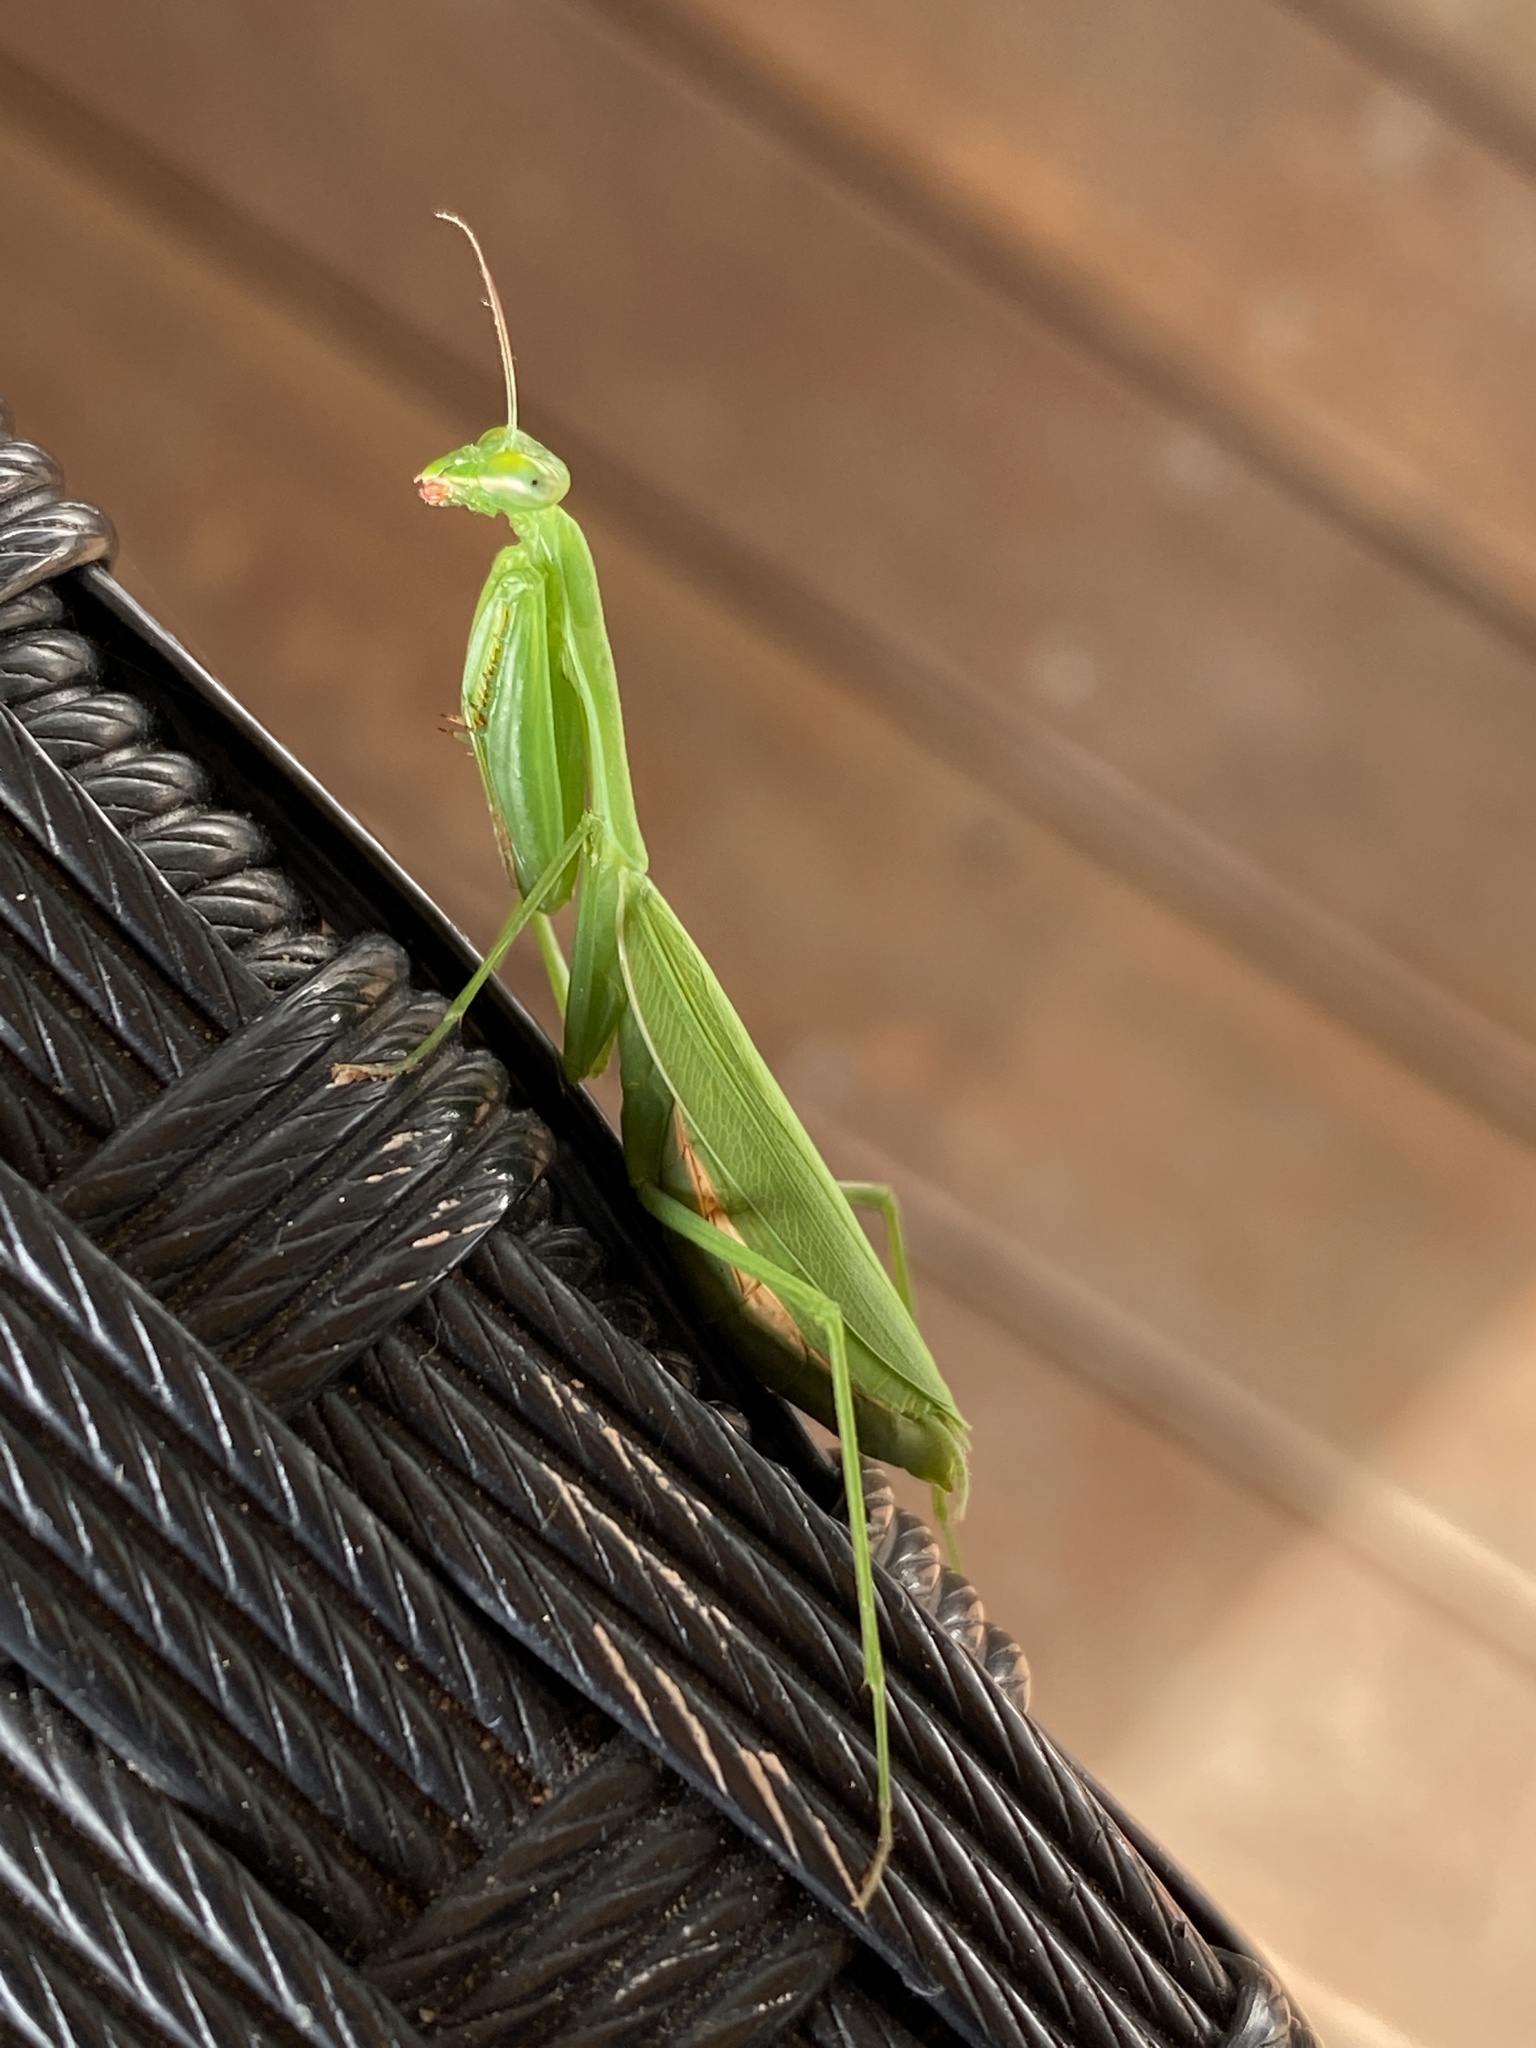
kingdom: Animalia
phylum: Arthropoda
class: Insecta
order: Mantodea
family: Miomantidae
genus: Miomantis
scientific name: Miomantis caffra
